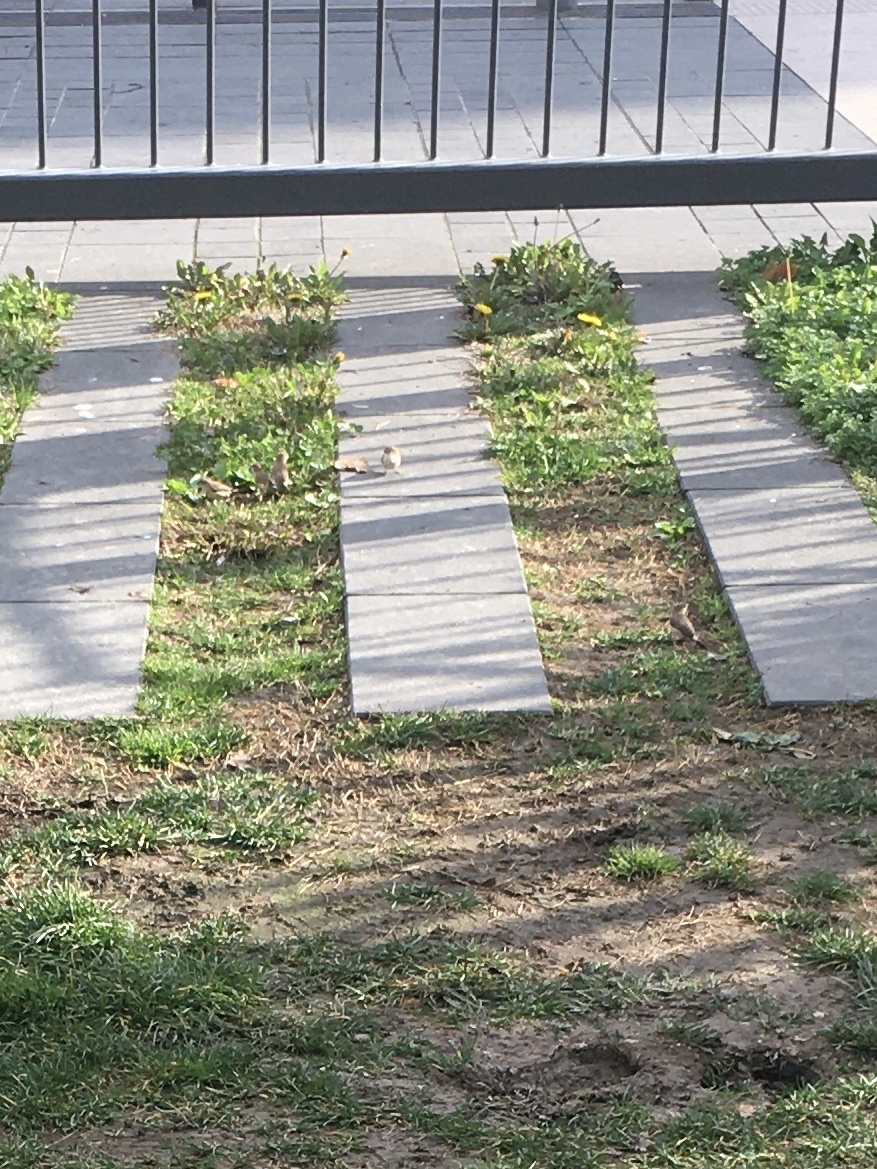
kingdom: Animalia
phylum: Chordata
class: Aves
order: Passeriformes
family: Motacillidae
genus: Motacilla
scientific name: Motacilla cinerea
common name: Grey wagtail
